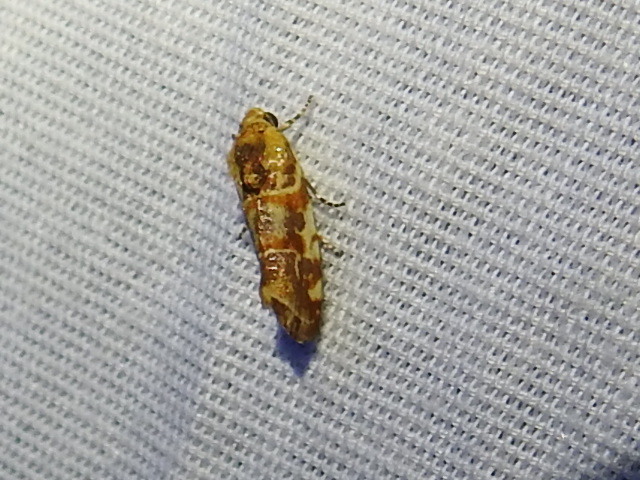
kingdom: Animalia
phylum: Arthropoda
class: Insecta
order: Lepidoptera
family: Noctuidae
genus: Spragueia
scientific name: Spragueia jaguaralis
